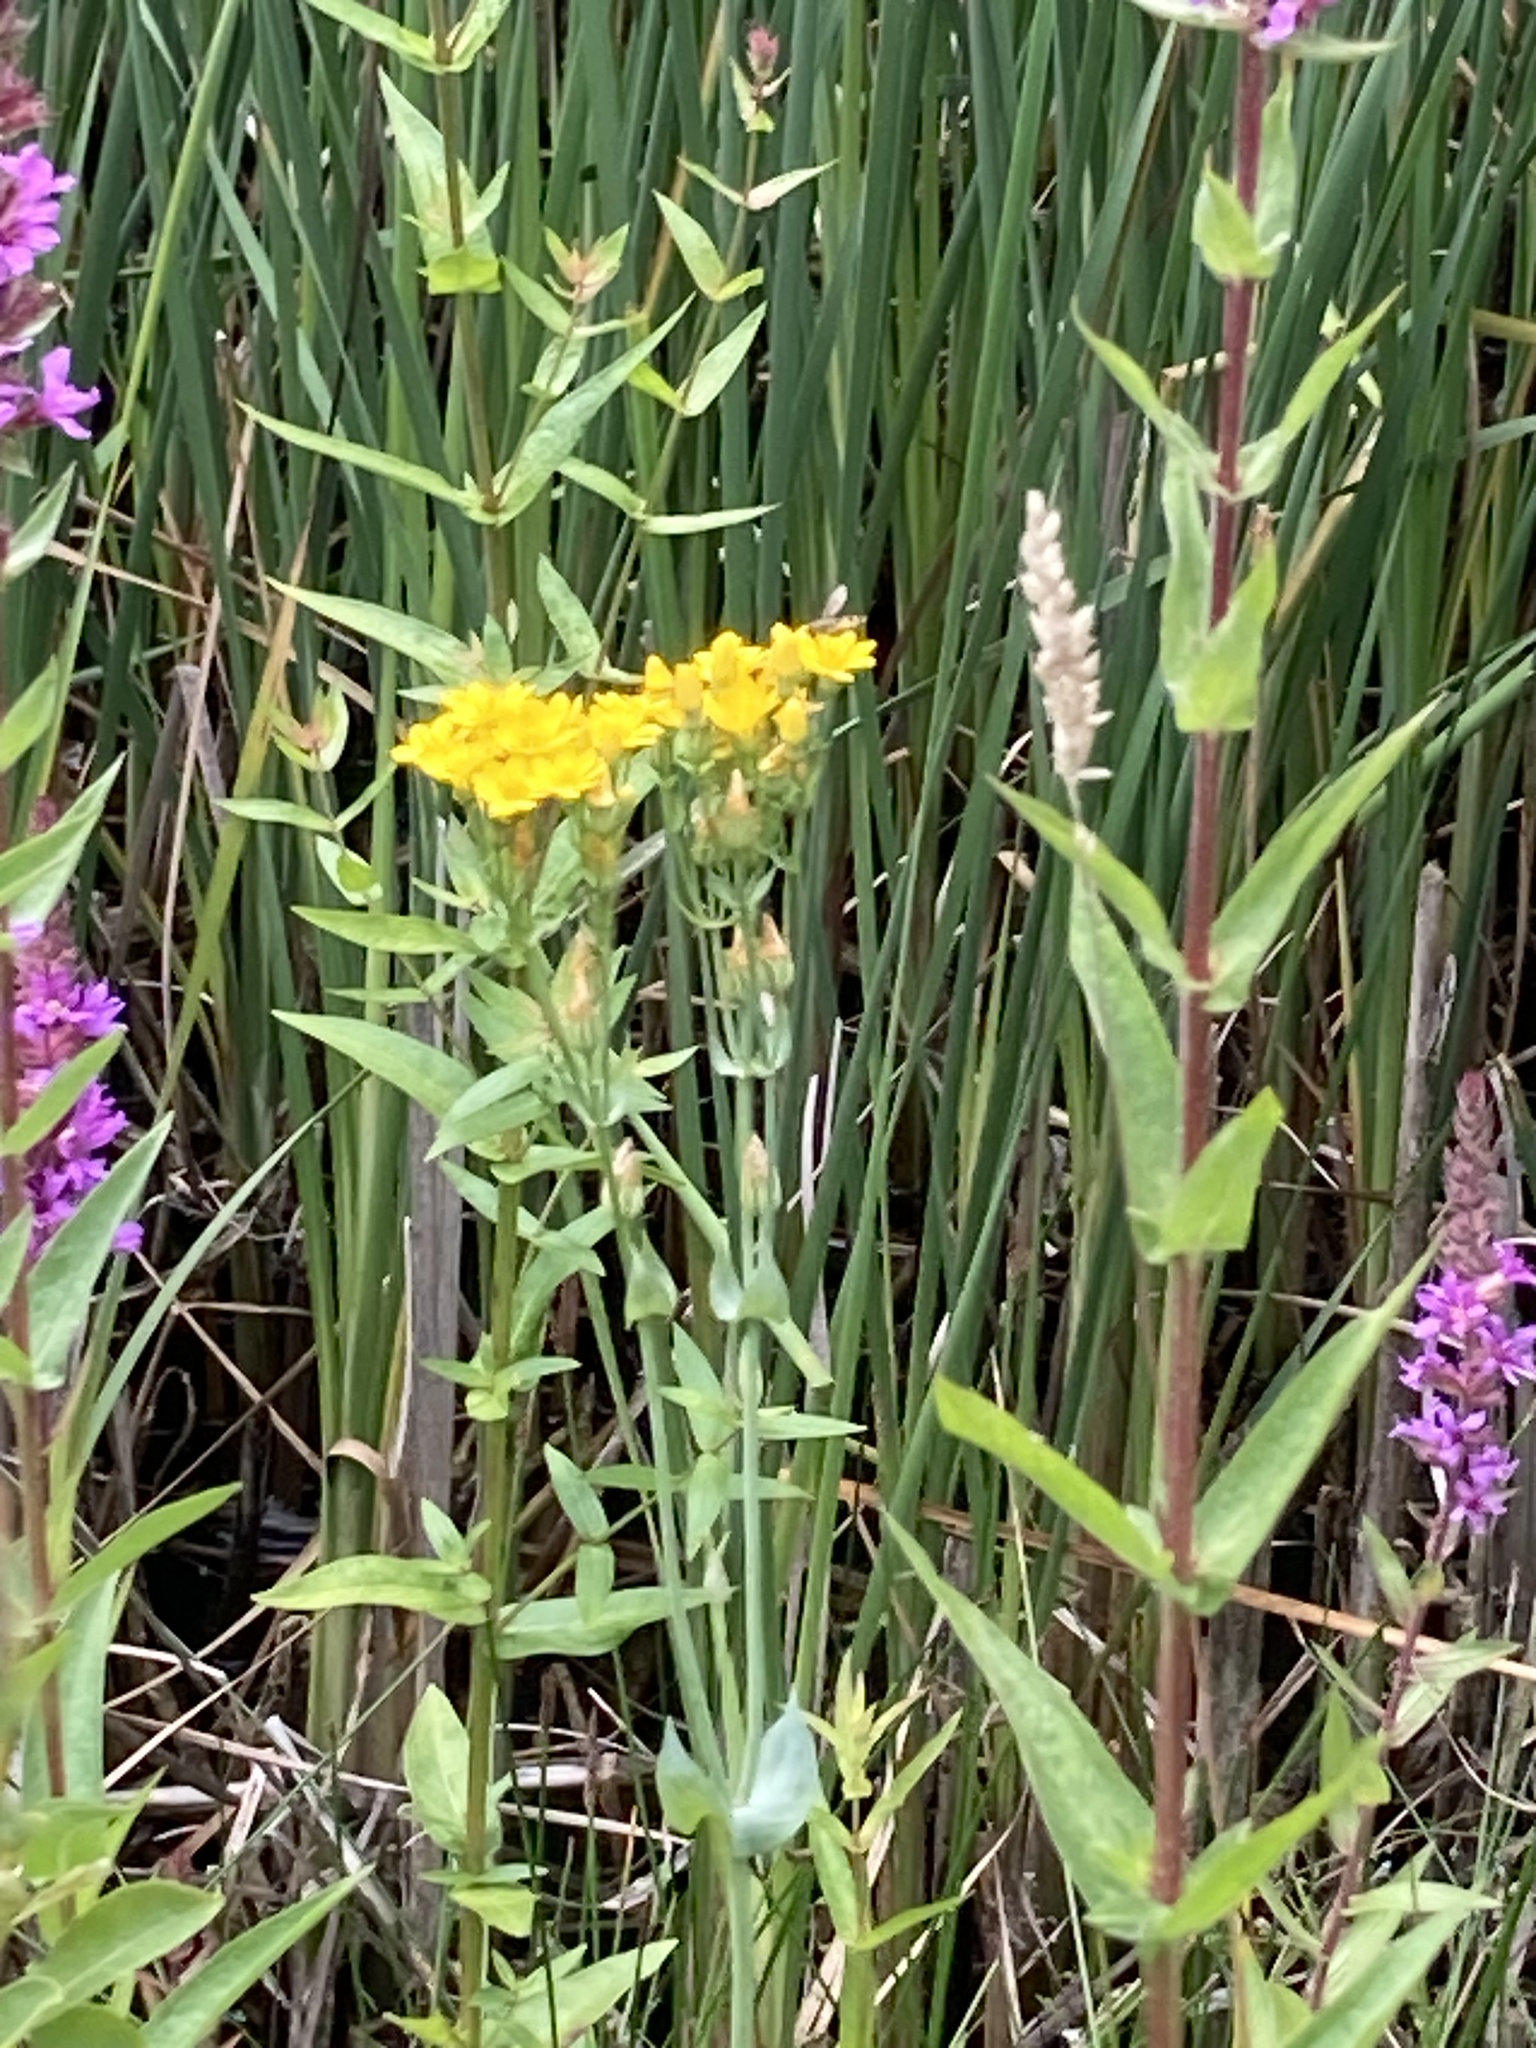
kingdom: Plantae
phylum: Tracheophyta
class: Magnoliopsida
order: Gentianales
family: Gentianaceae
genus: Blackstonia
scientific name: Blackstonia perfoliata
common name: Yellow-wort
